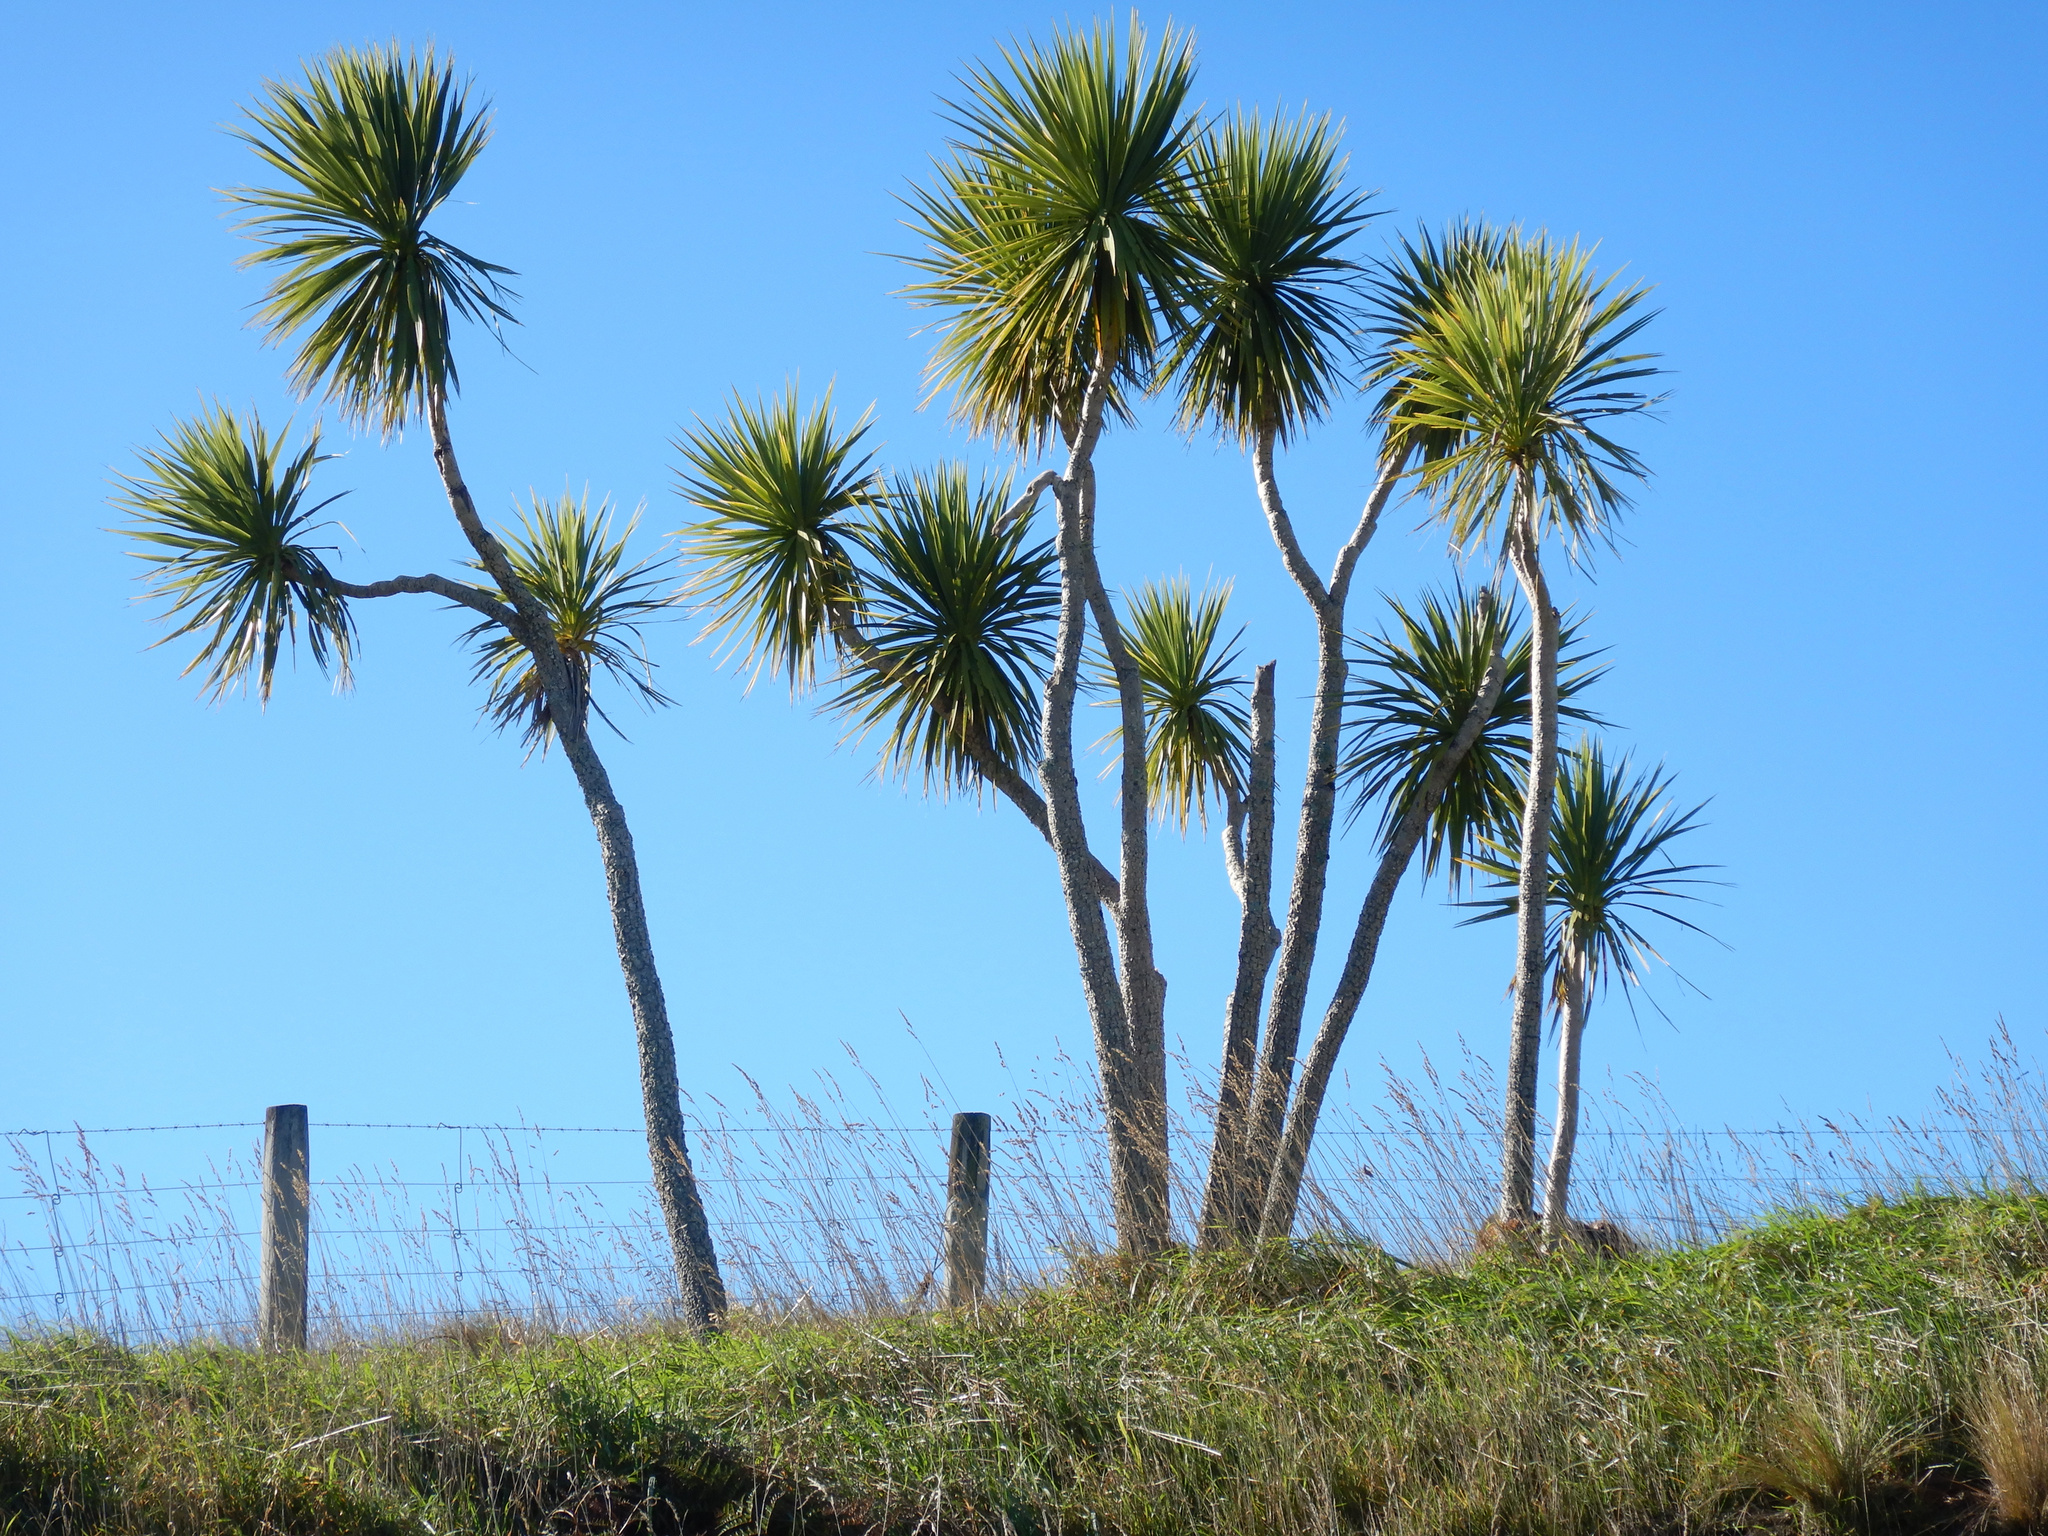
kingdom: Plantae
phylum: Tracheophyta
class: Liliopsida
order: Asparagales
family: Asparagaceae
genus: Cordyline
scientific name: Cordyline australis
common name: Cabbage-palm
